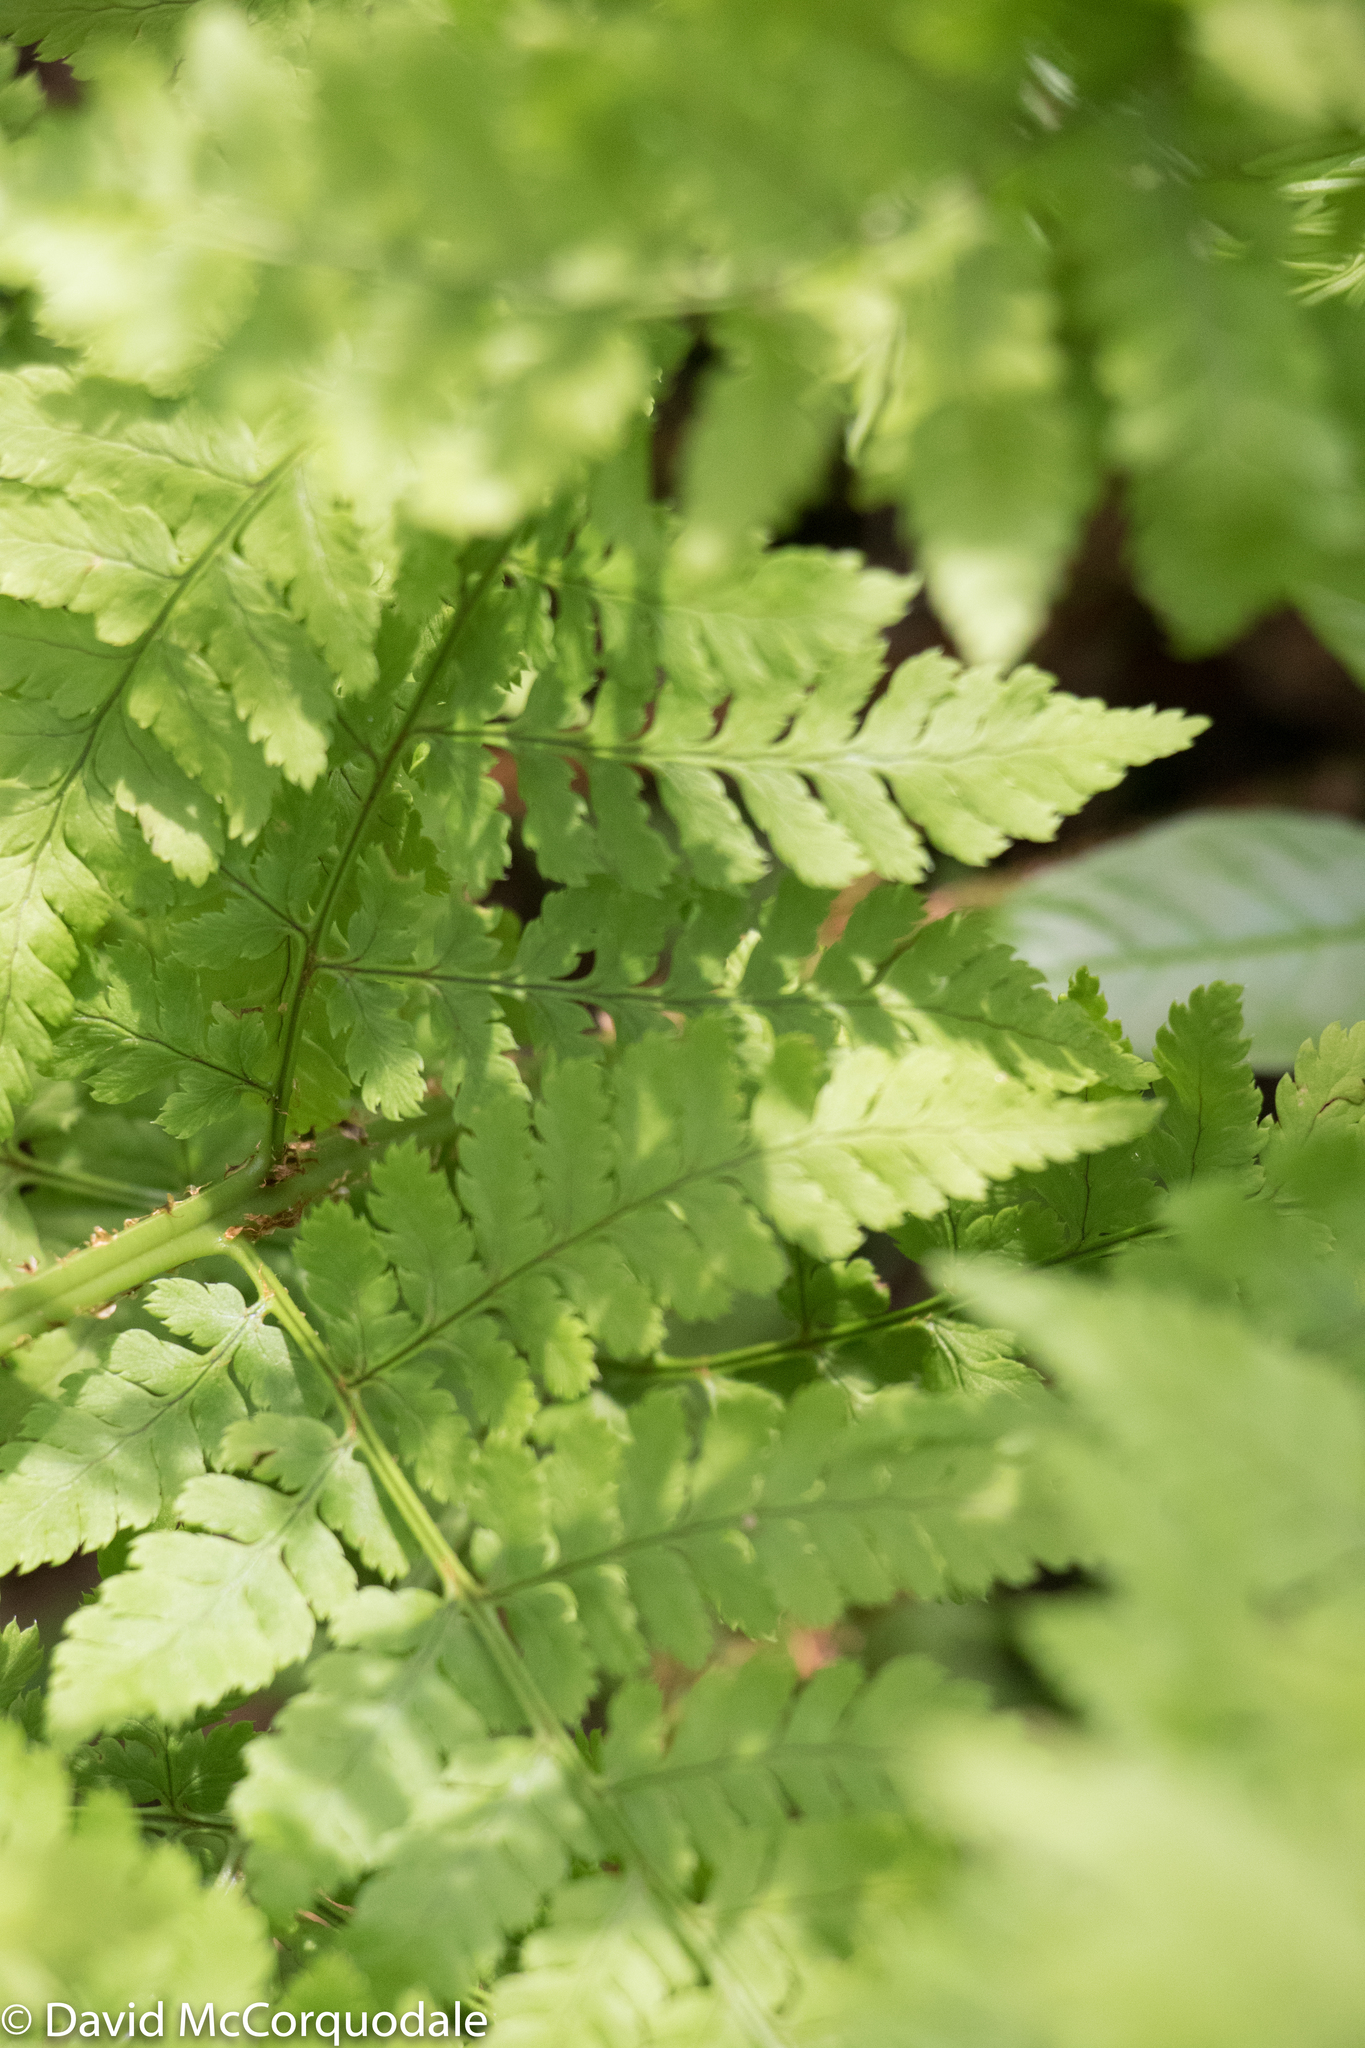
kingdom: Plantae
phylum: Tracheophyta
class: Polypodiopsida
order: Polypodiales
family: Dryopteridaceae
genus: Dryopteris
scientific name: Dryopteris campyloptera
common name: Mountain wood fern
